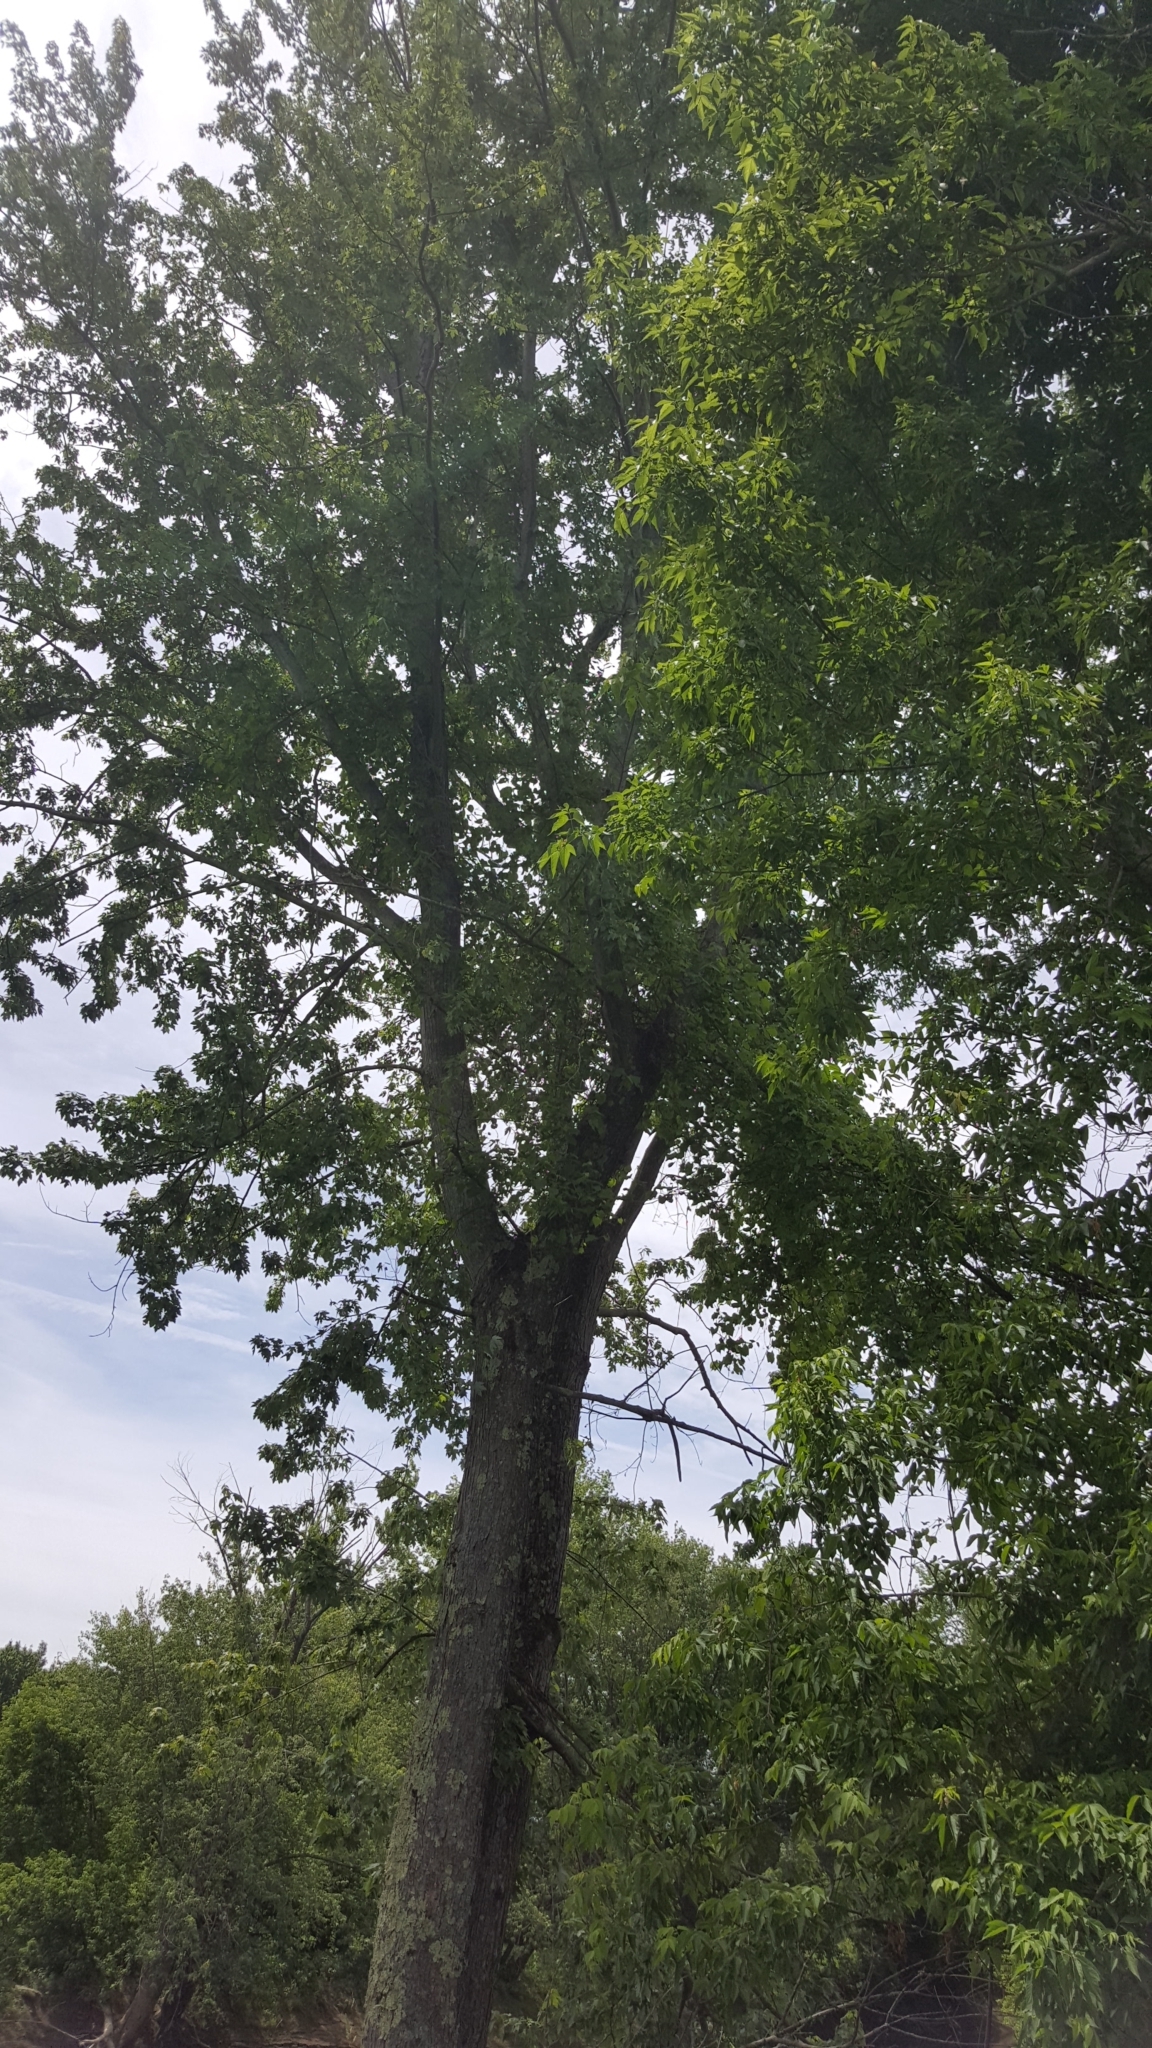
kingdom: Plantae
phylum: Tracheophyta
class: Magnoliopsida
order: Sapindales
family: Sapindaceae
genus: Acer
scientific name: Acer saccharinum
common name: Silver maple
